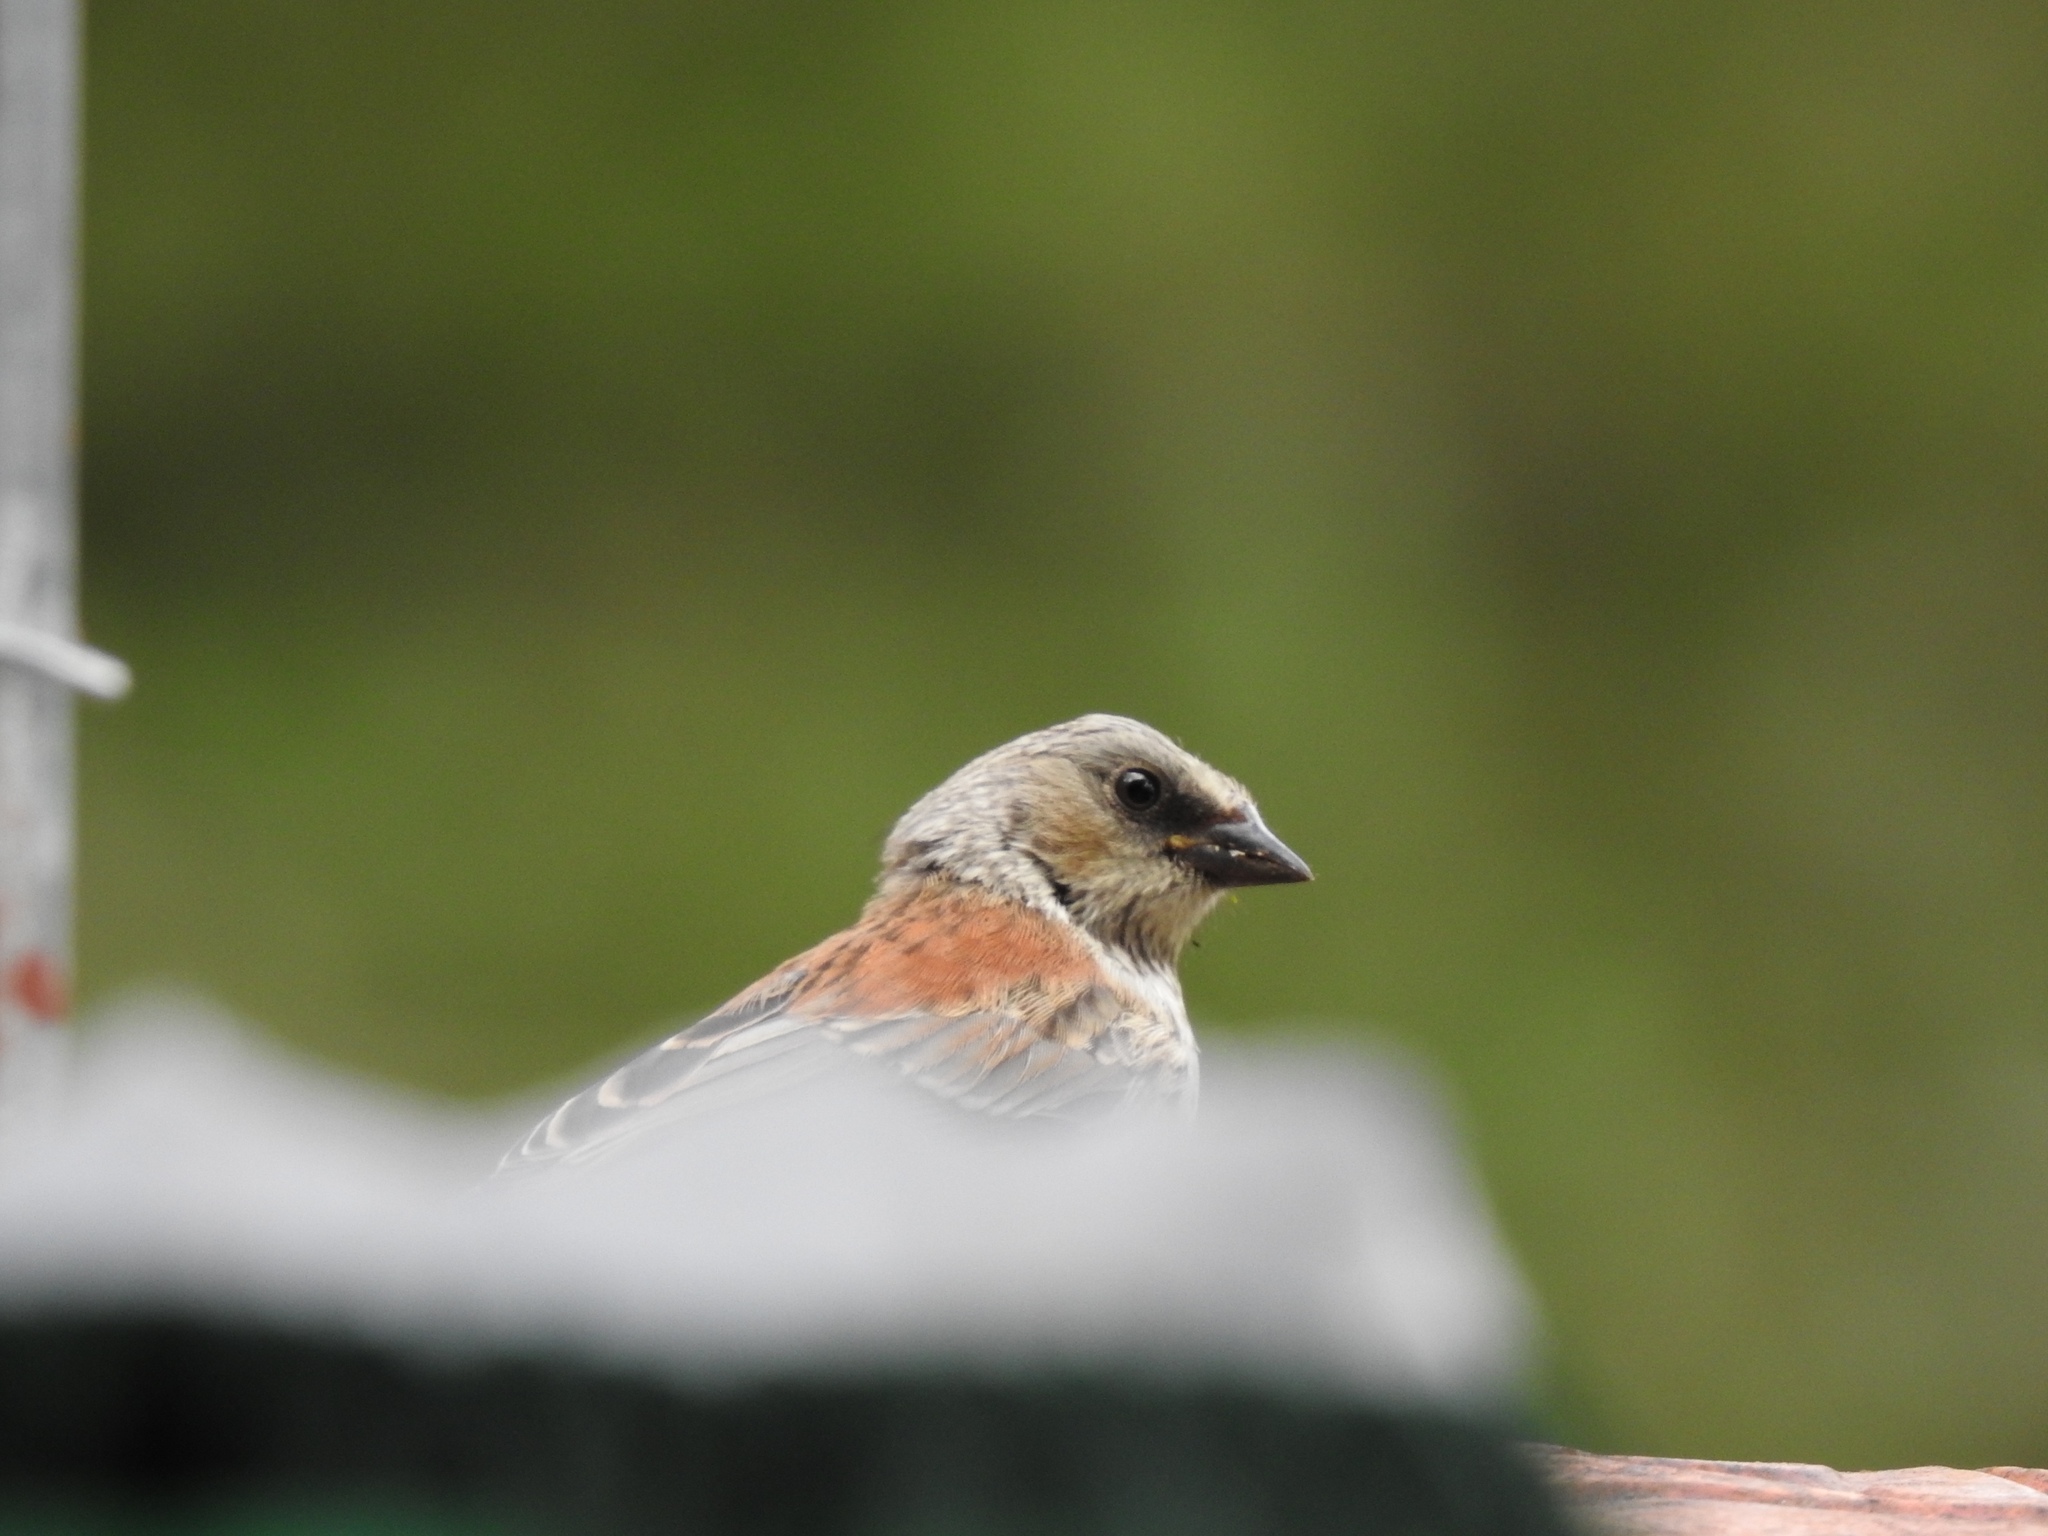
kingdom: Animalia
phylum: Chordata
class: Aves
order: Passeriformes
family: Passerellidae
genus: Junco
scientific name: Junco hyemalis
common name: Dark-eyed junco
